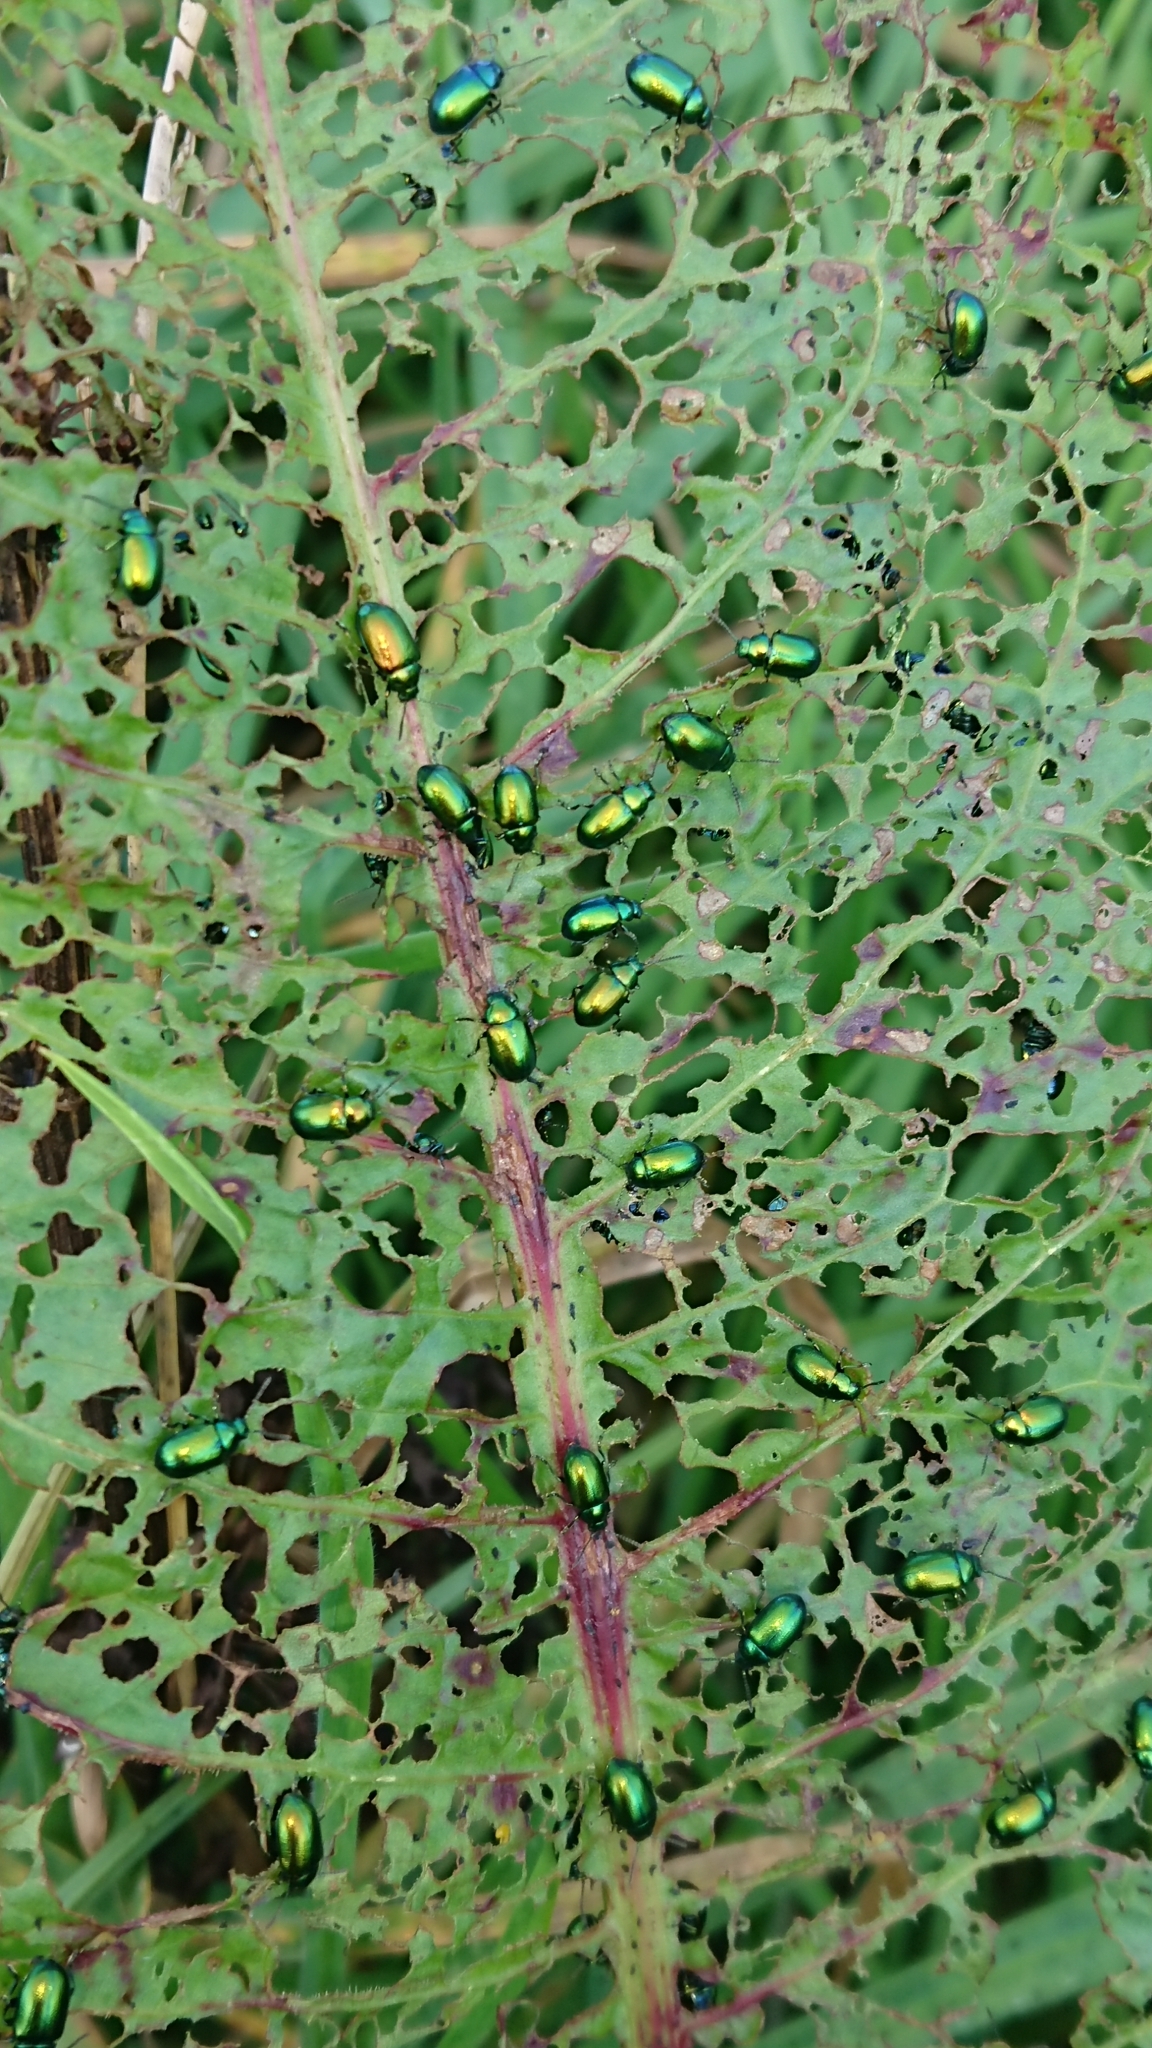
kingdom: Animalia
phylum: Arthropoda
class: Insecta
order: Coleoptera
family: Chrysomelidae
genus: Gastrophysa
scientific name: Gastrophysa viridula
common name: Green dock beetle
